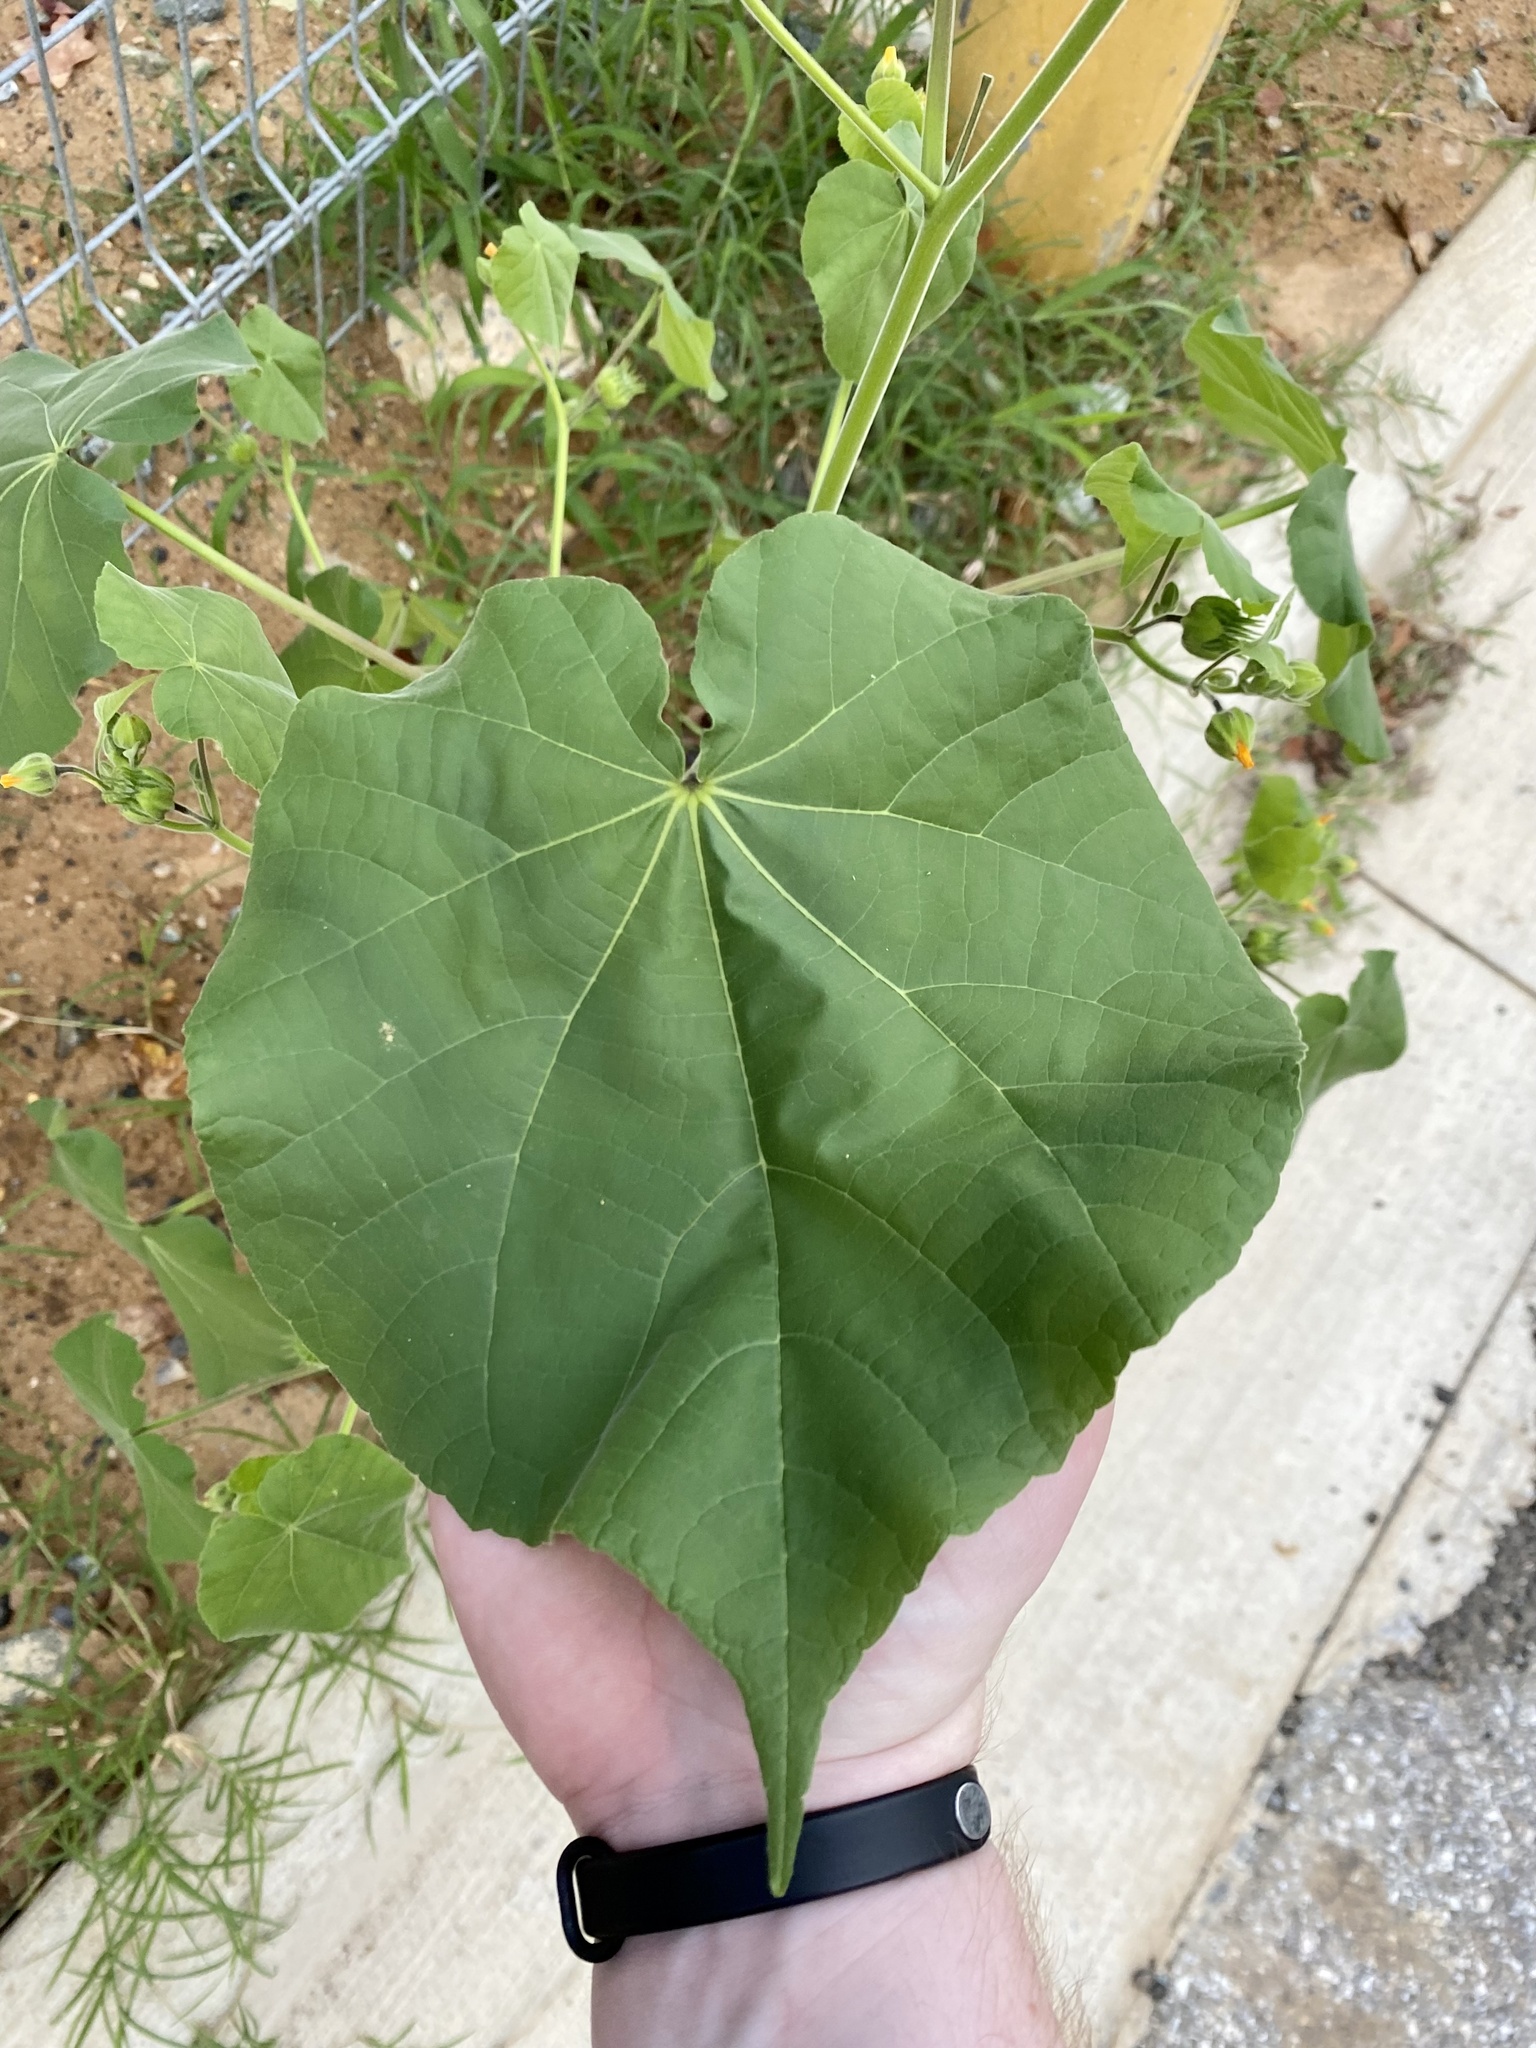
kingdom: Plantae
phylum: Tracheophyta
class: Magnoliopsida
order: Malvales
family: Malvaceae
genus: Abutilon
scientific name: Abutilon theophrasti
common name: Velvetleaf
